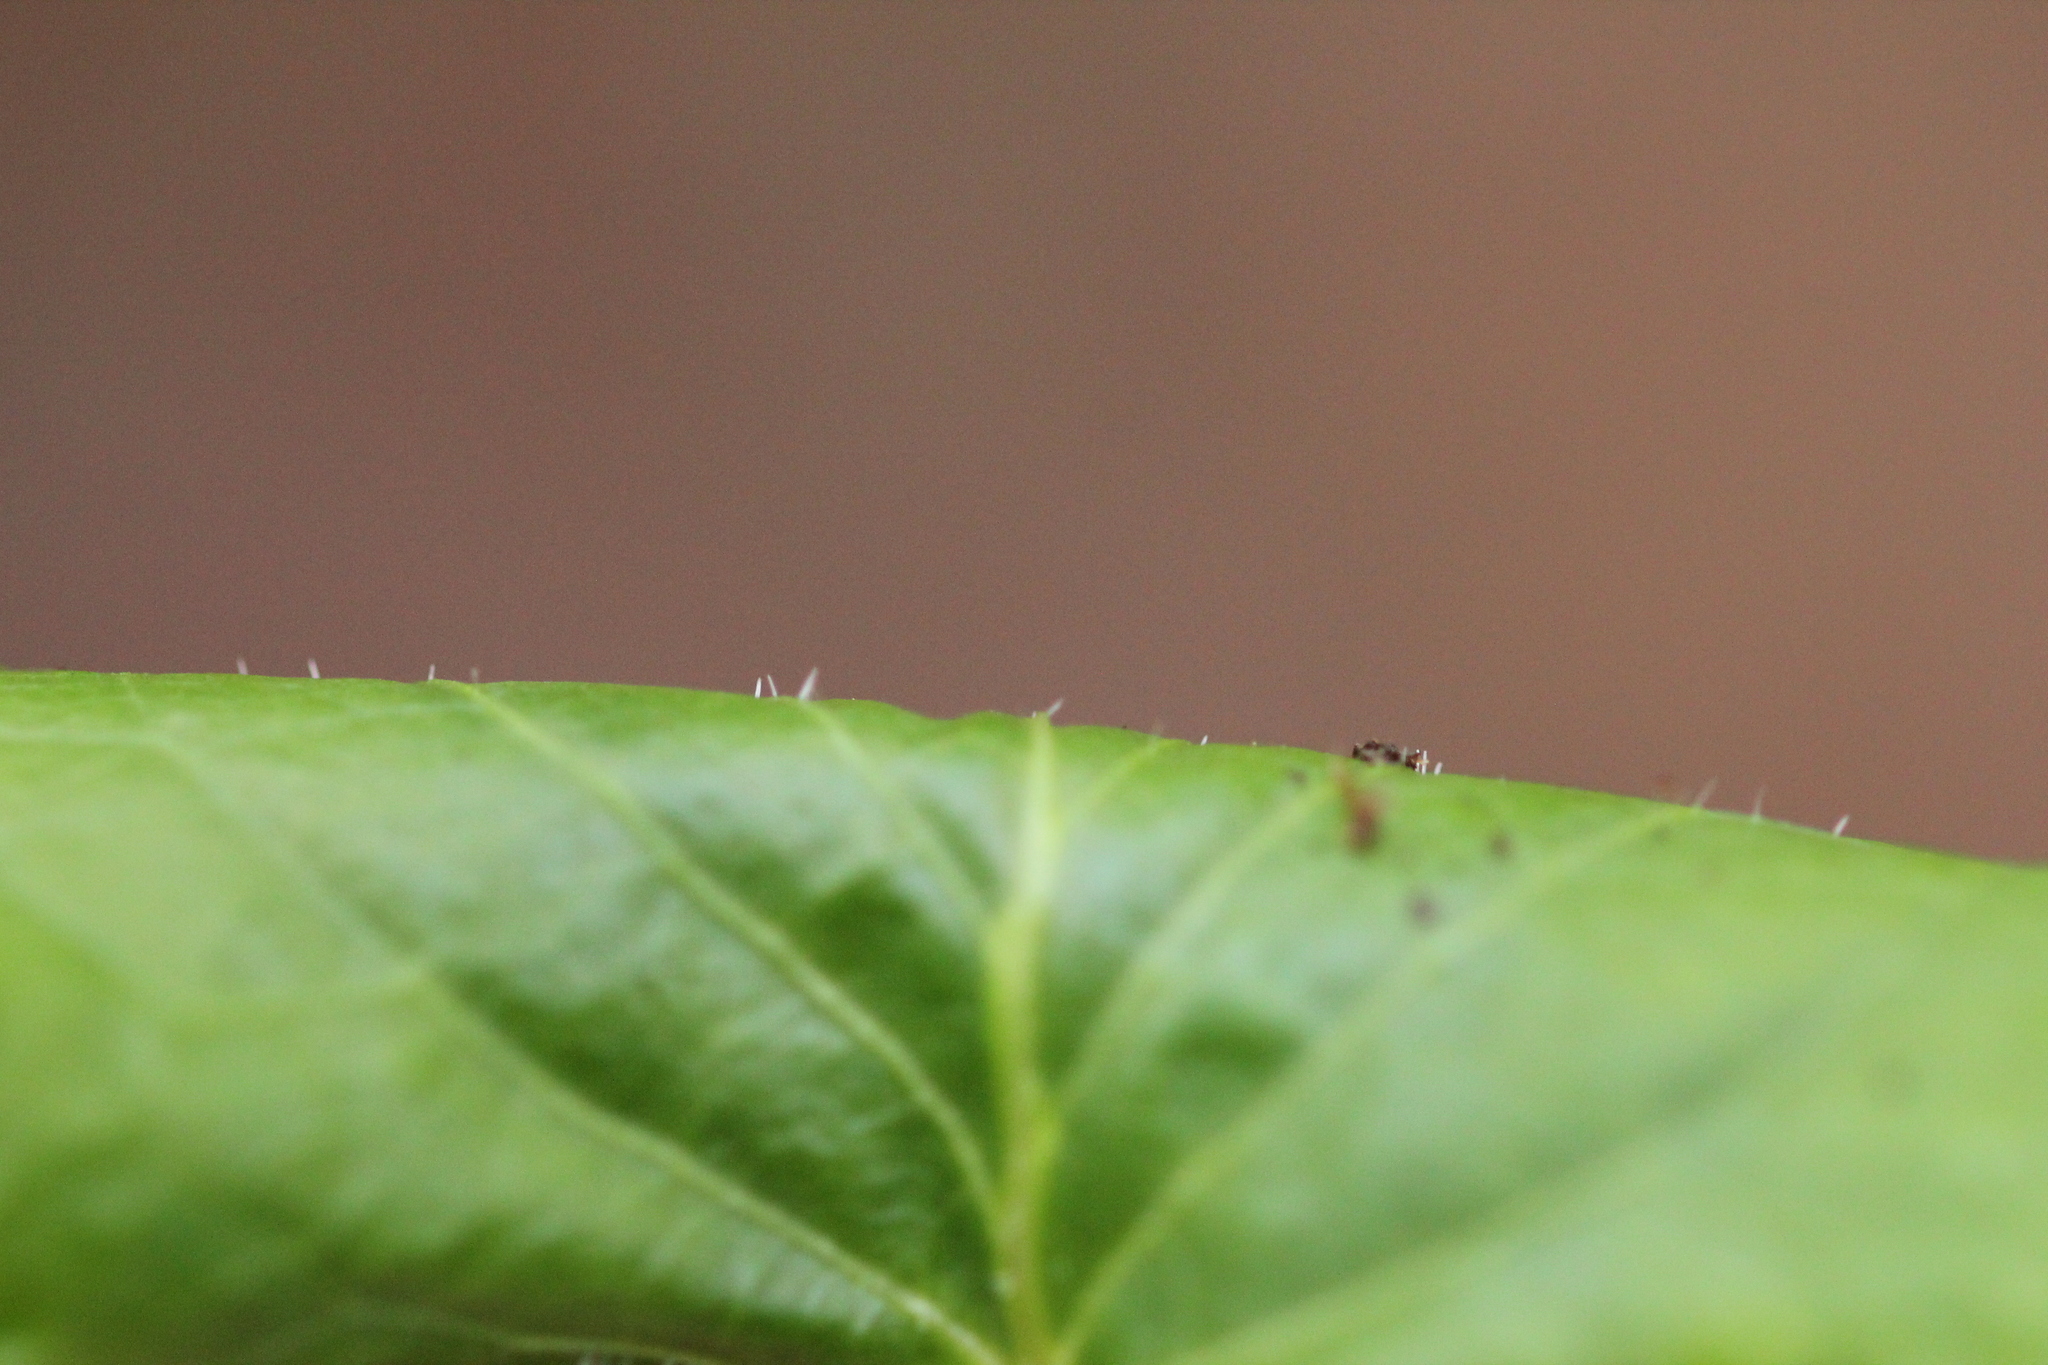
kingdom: Plantae
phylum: Tracheophyta
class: Magnoliopsida
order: Malpighiales
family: Violaceae
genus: Viola
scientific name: Viola blanda
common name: Sweet white violet
